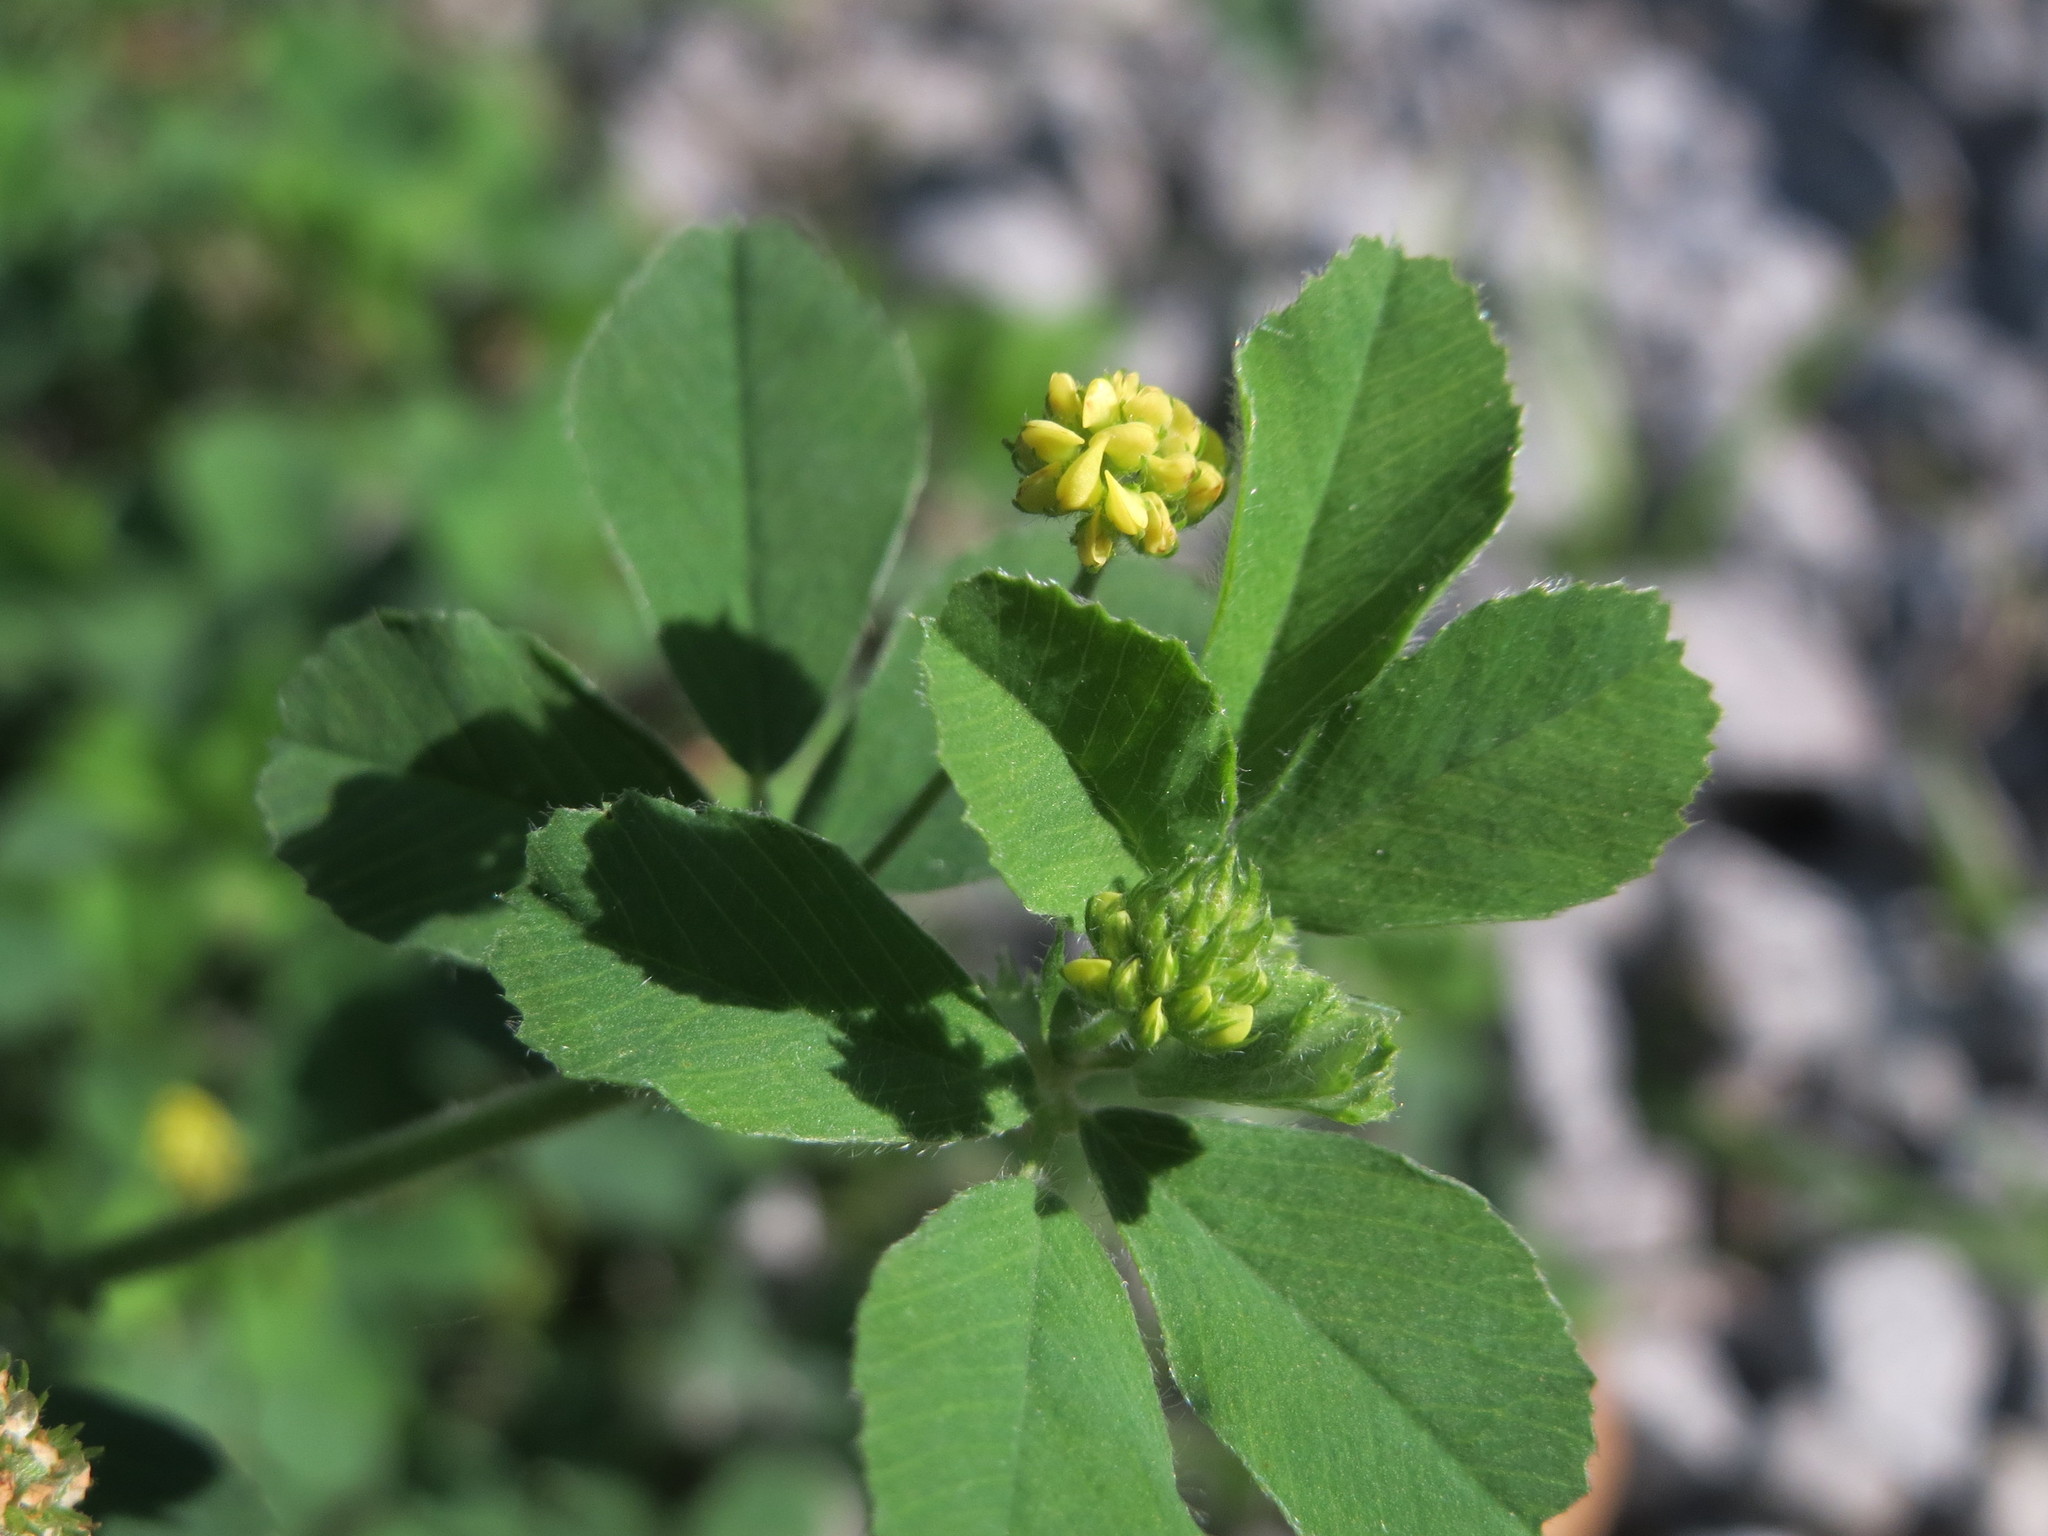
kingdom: Plantae
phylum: Tracheophyta
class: Magnoliopsida
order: Fabales
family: Fabaceae
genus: Medicago
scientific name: Medicago lupulina
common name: Black medick
